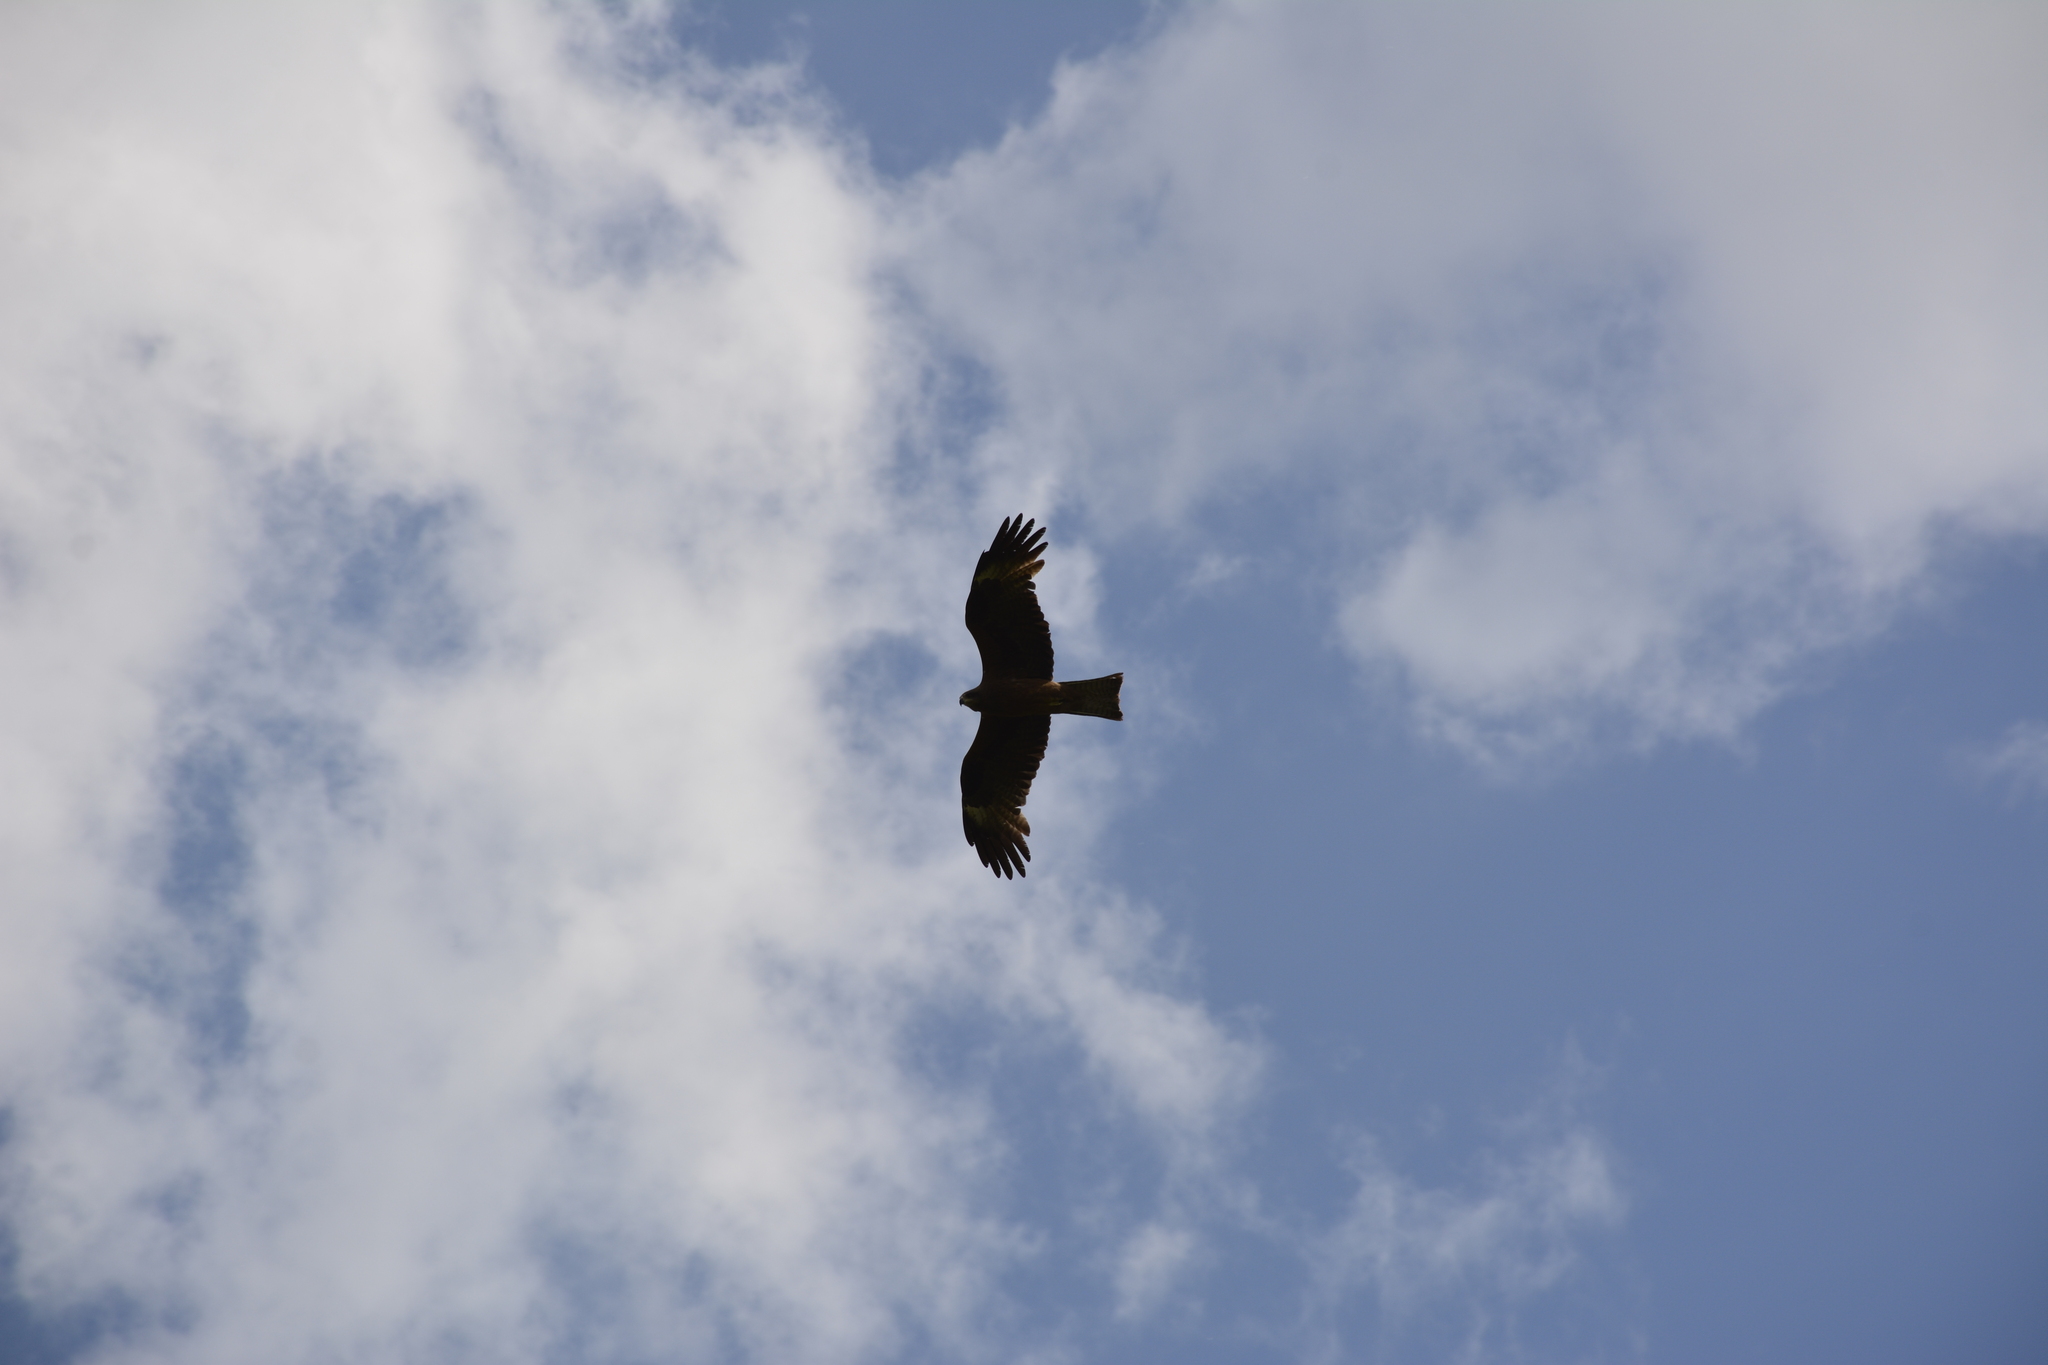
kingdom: Animalia
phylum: Chordata
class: Aves
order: Accipitriformes
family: Accipitridae
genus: Milvus
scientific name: Milvus migrans
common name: Black kite
